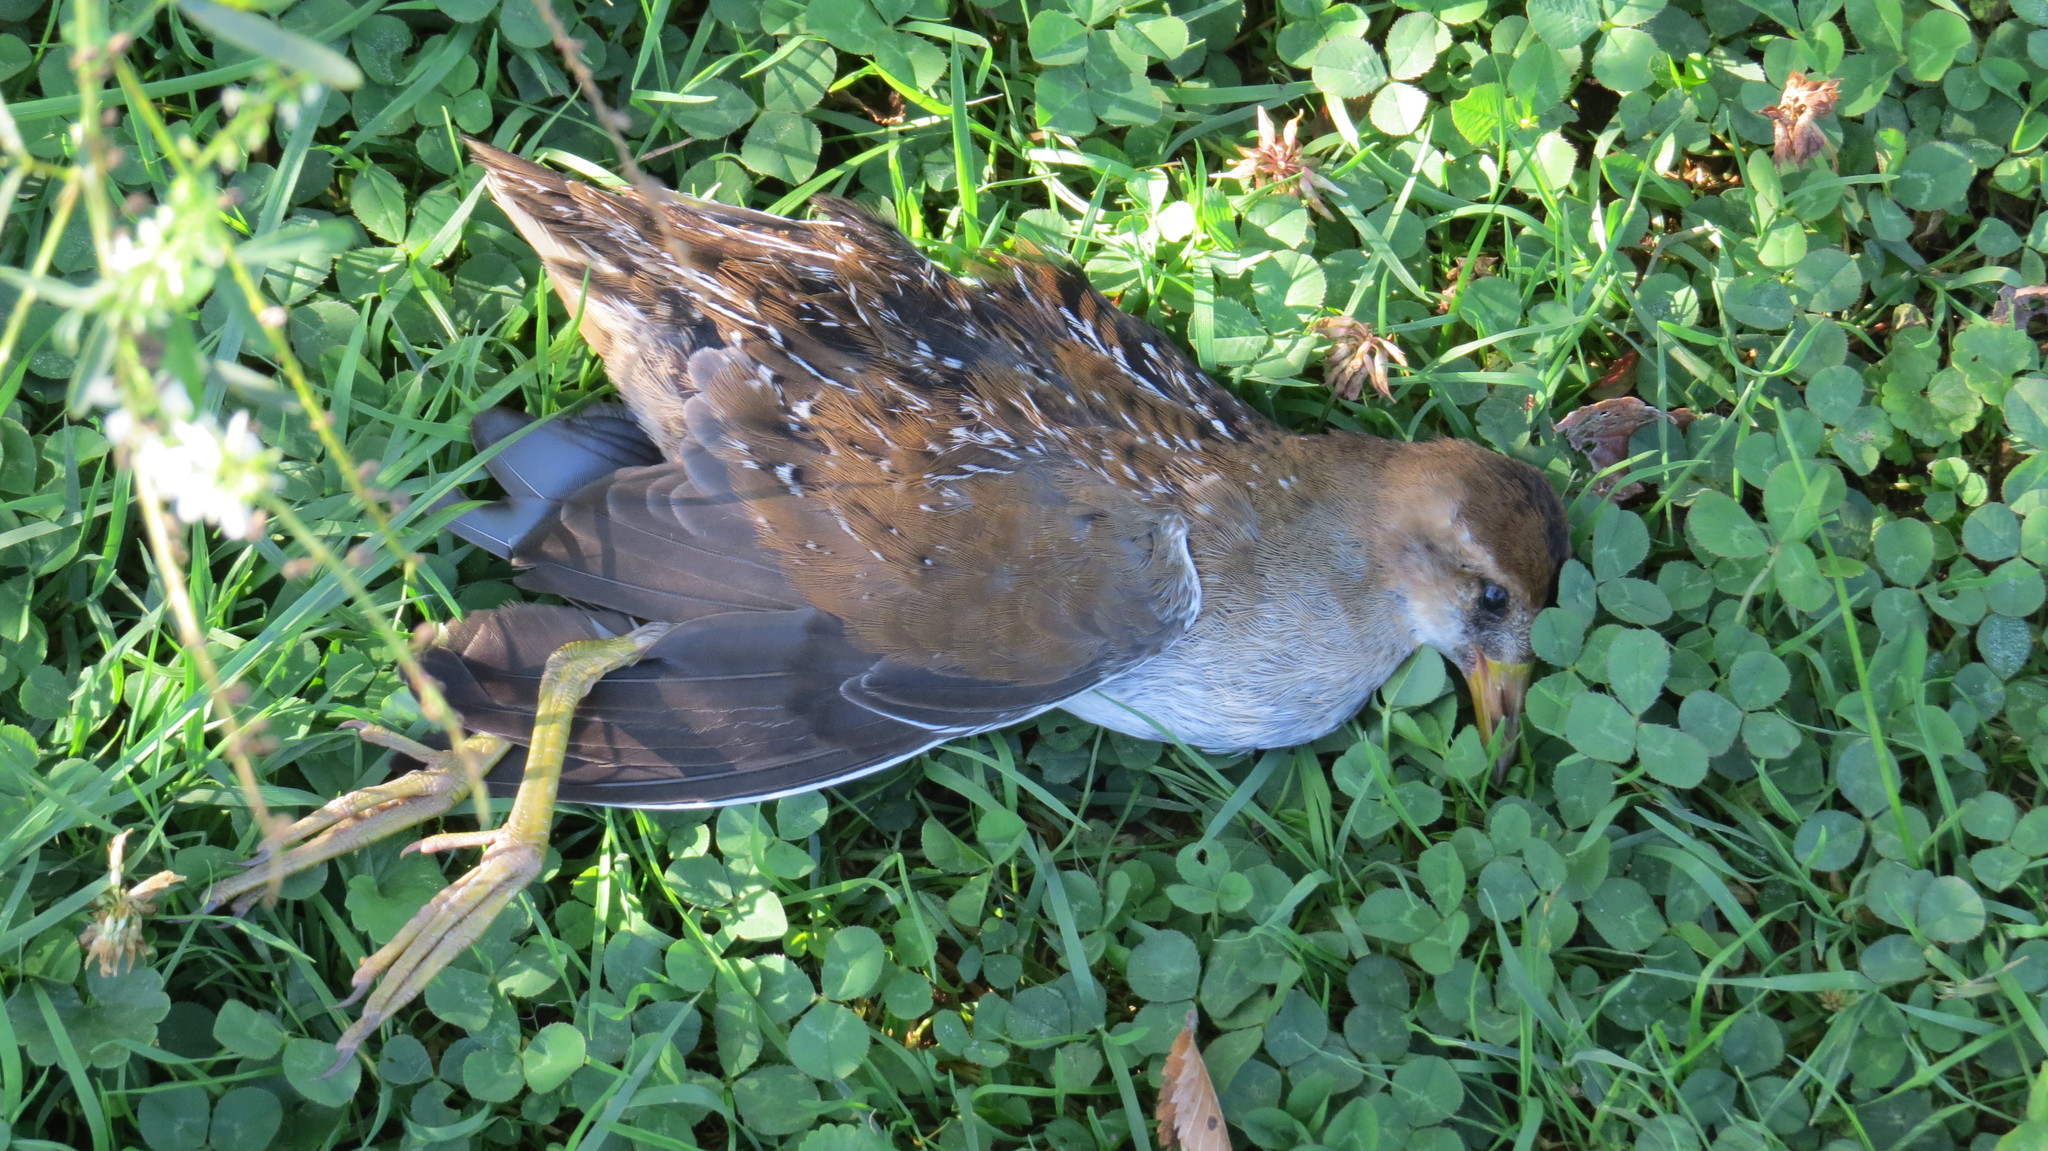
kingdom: Animalia
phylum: Chordata
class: Aves
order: Gruiformes
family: Rallidae
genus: Porzana
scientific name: Porzana carolina
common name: Sora
